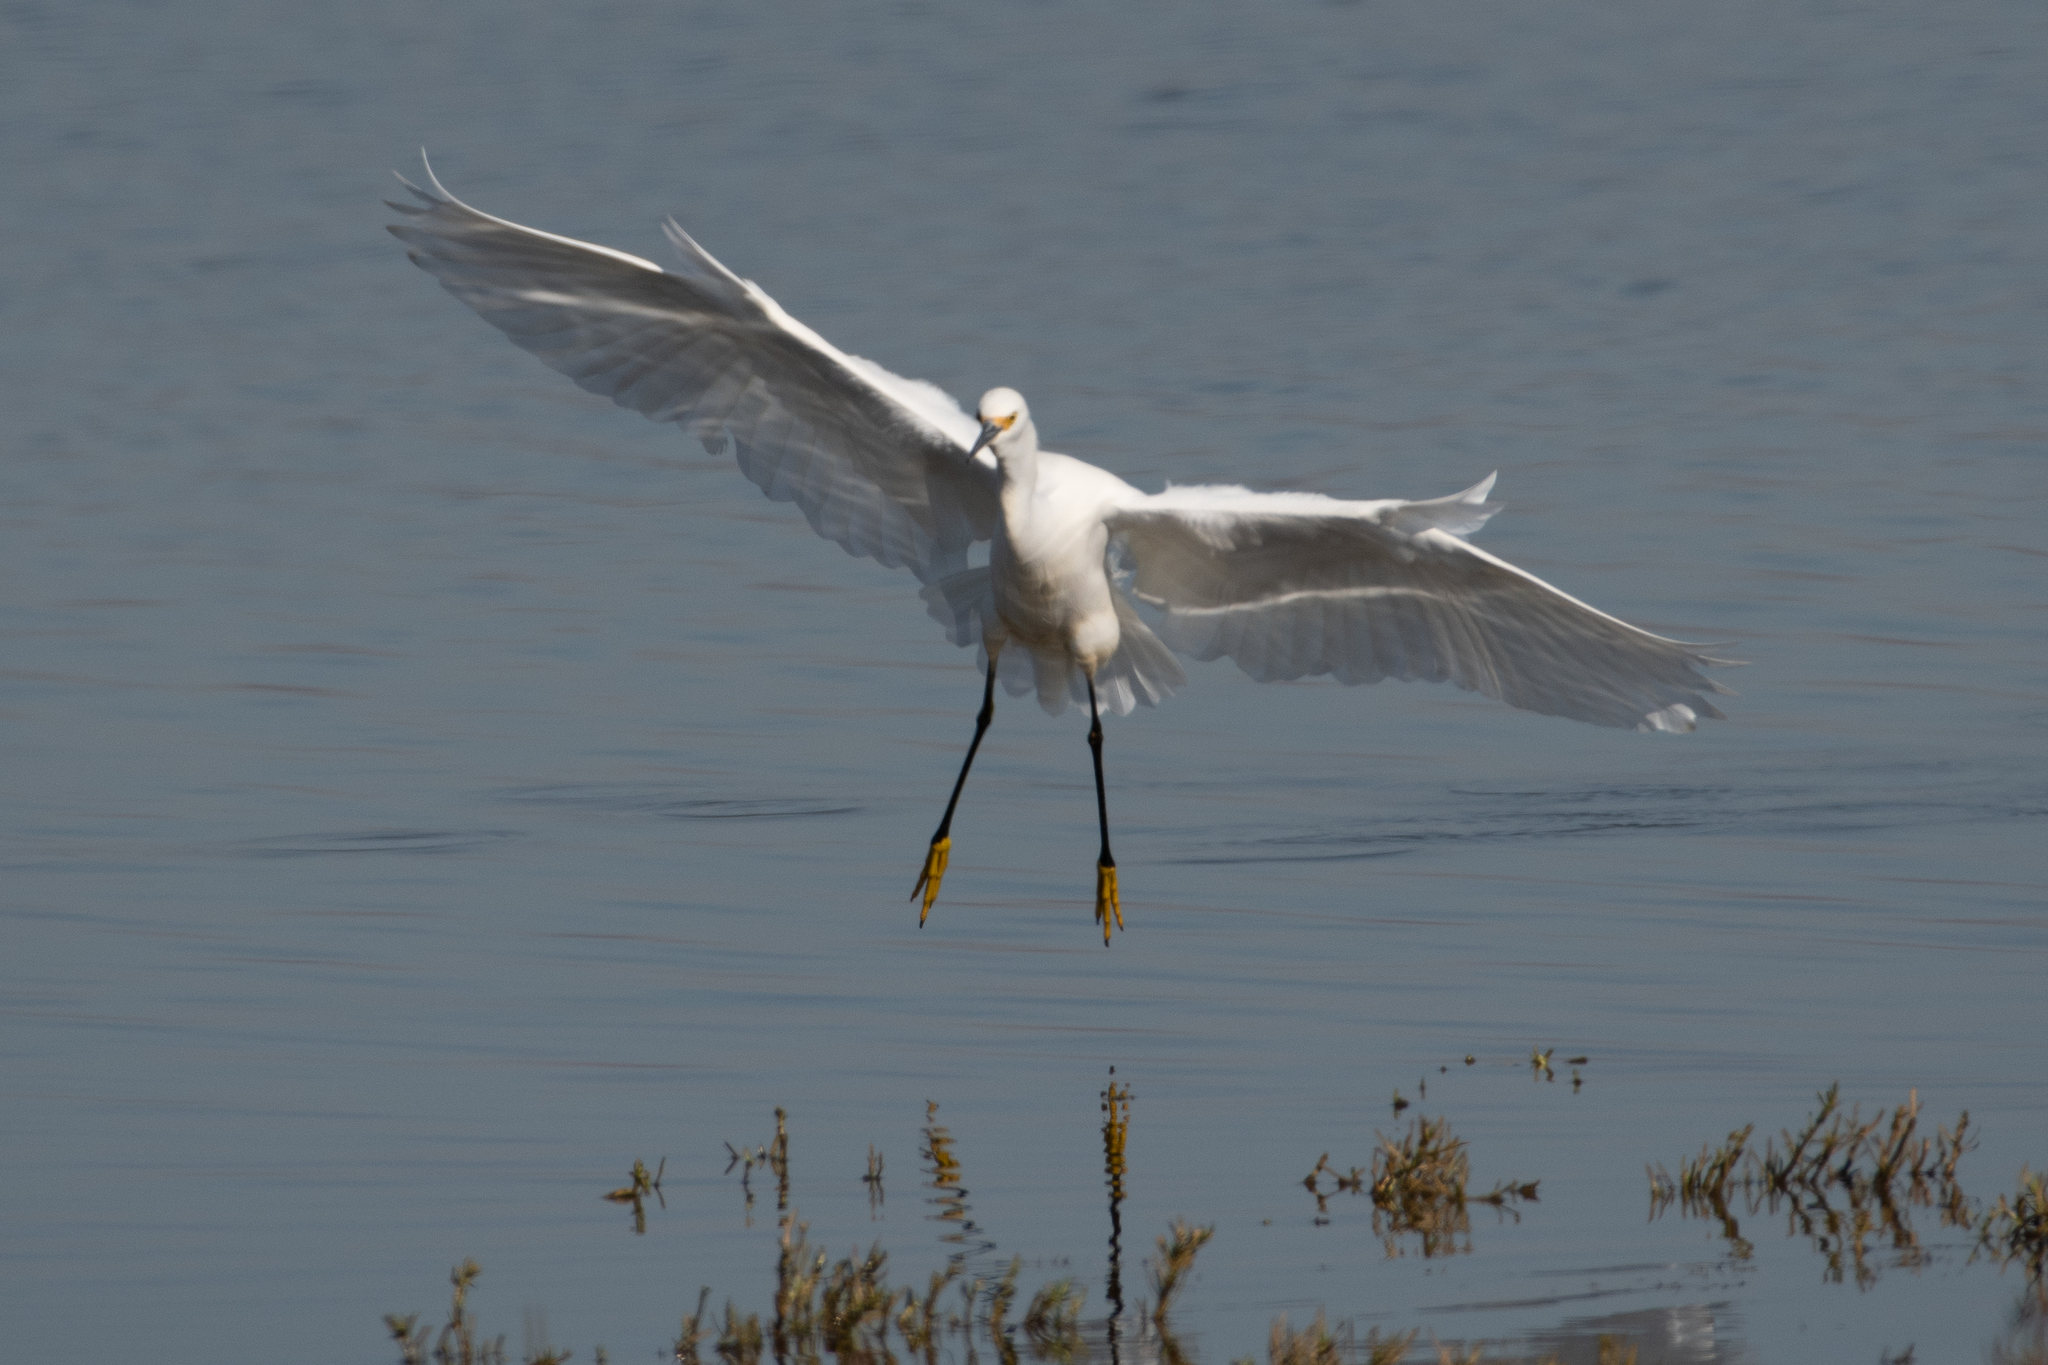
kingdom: Animalia
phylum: Chordata
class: Aves
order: Pelecaniformes
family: Ardeidae
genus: Egretta
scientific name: Egretta thula
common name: Snowy egret
